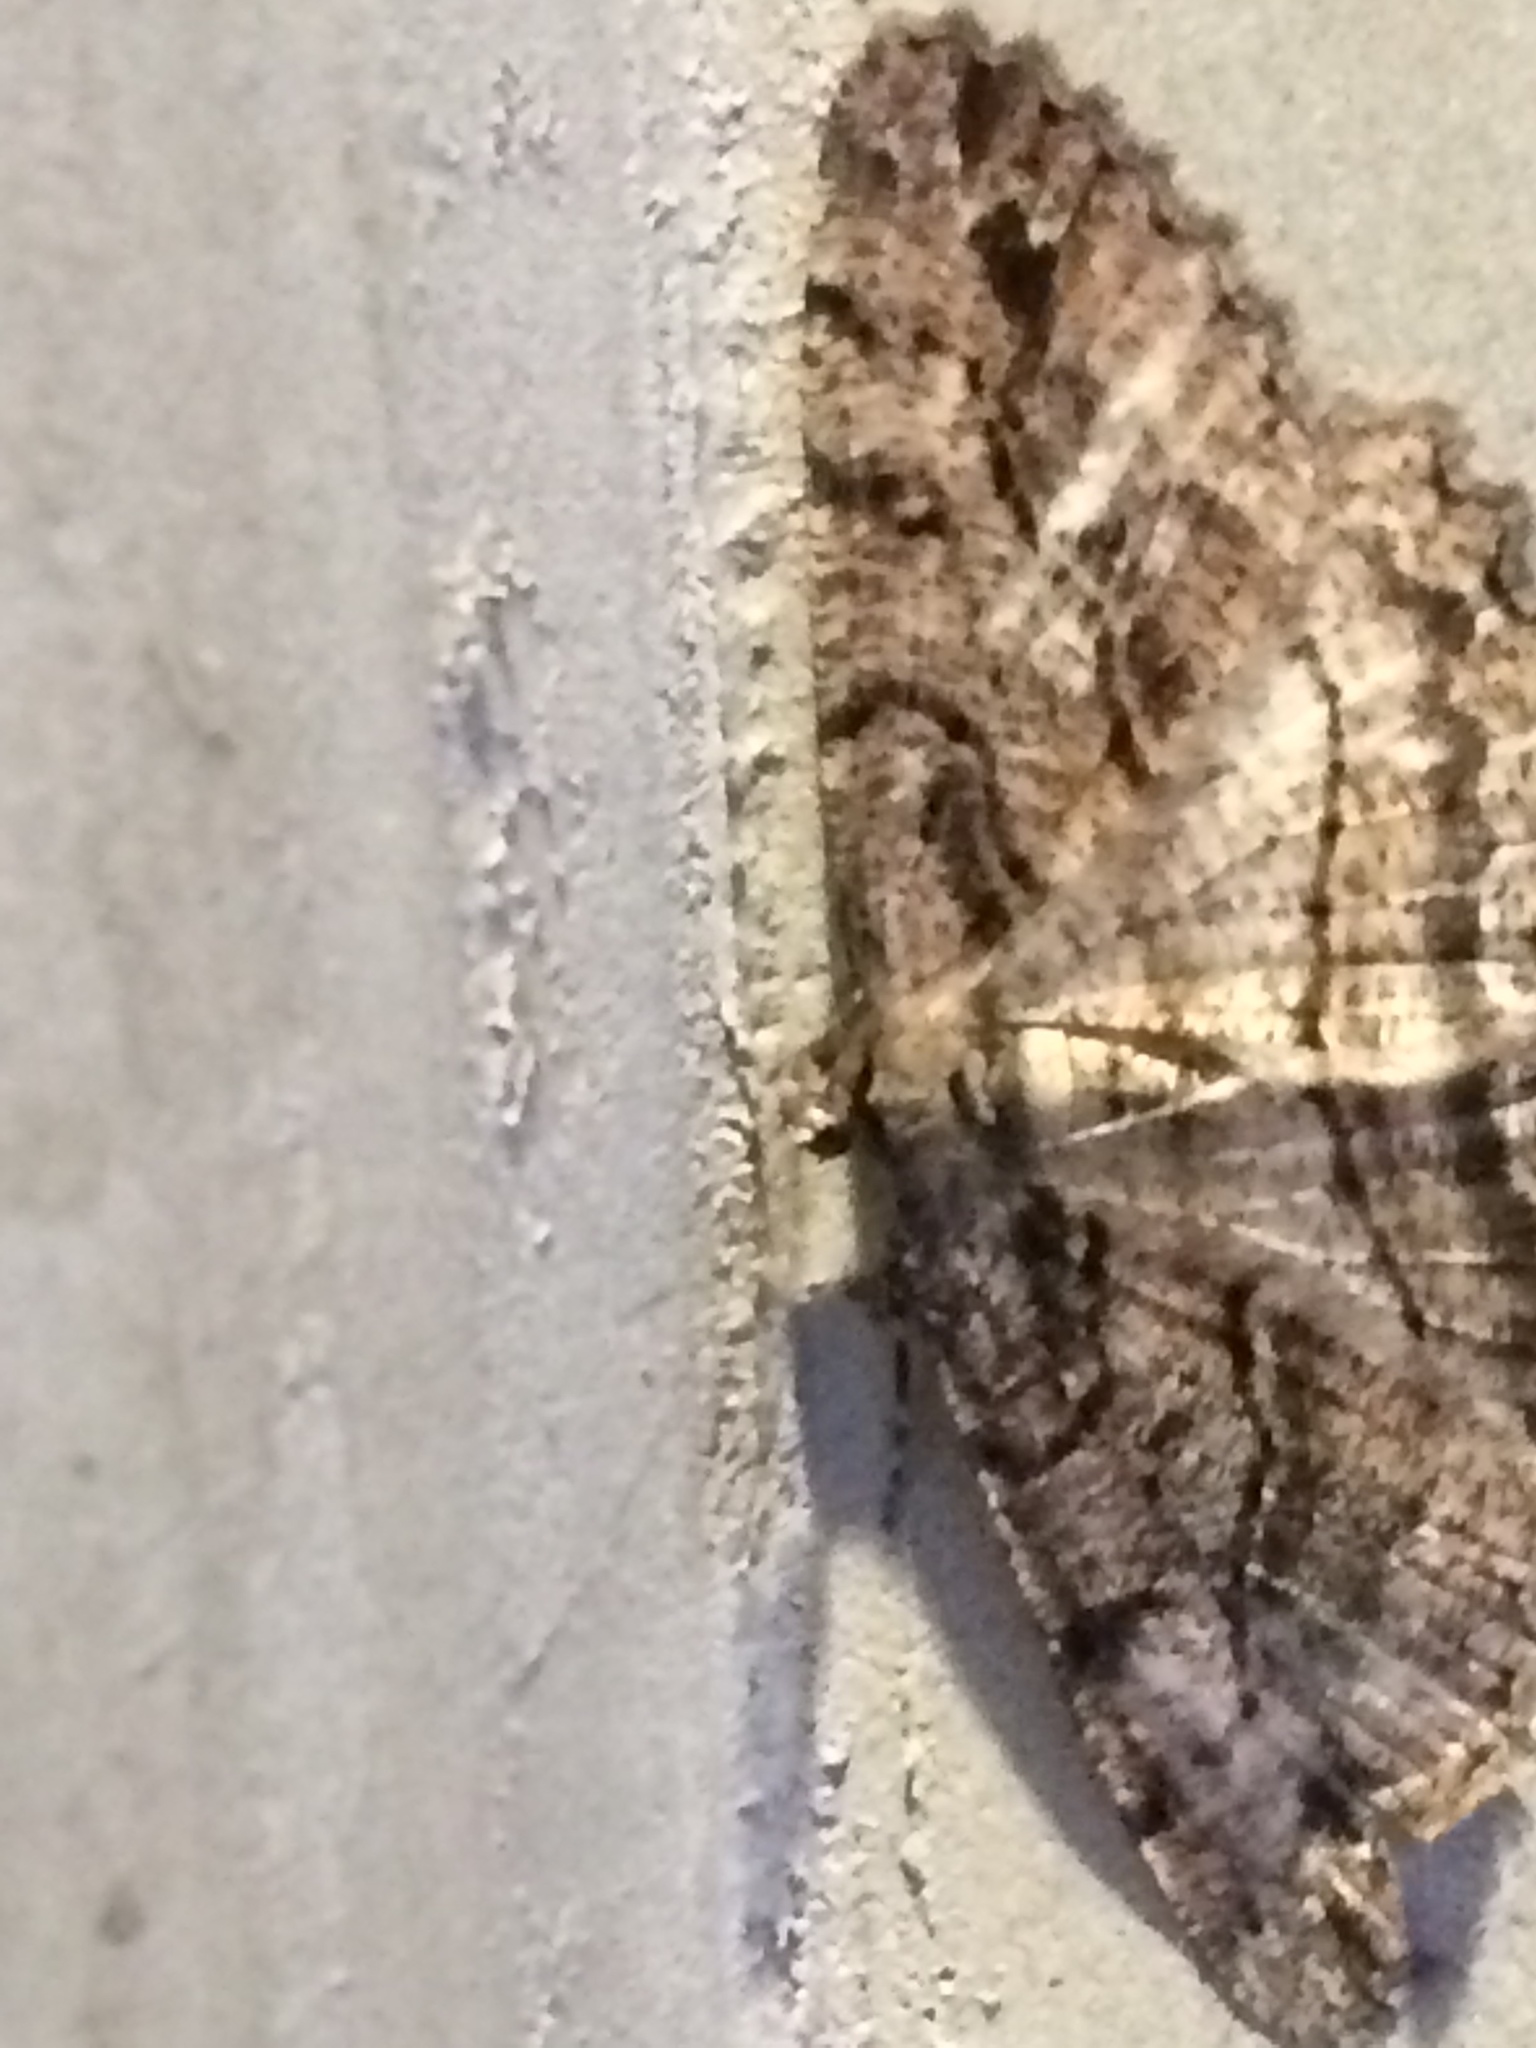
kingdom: Animalia
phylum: Arthropoda
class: Insecta
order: Lepidoptera
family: Geometridae
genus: Neoalcis
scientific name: Neoalcis californiaria
